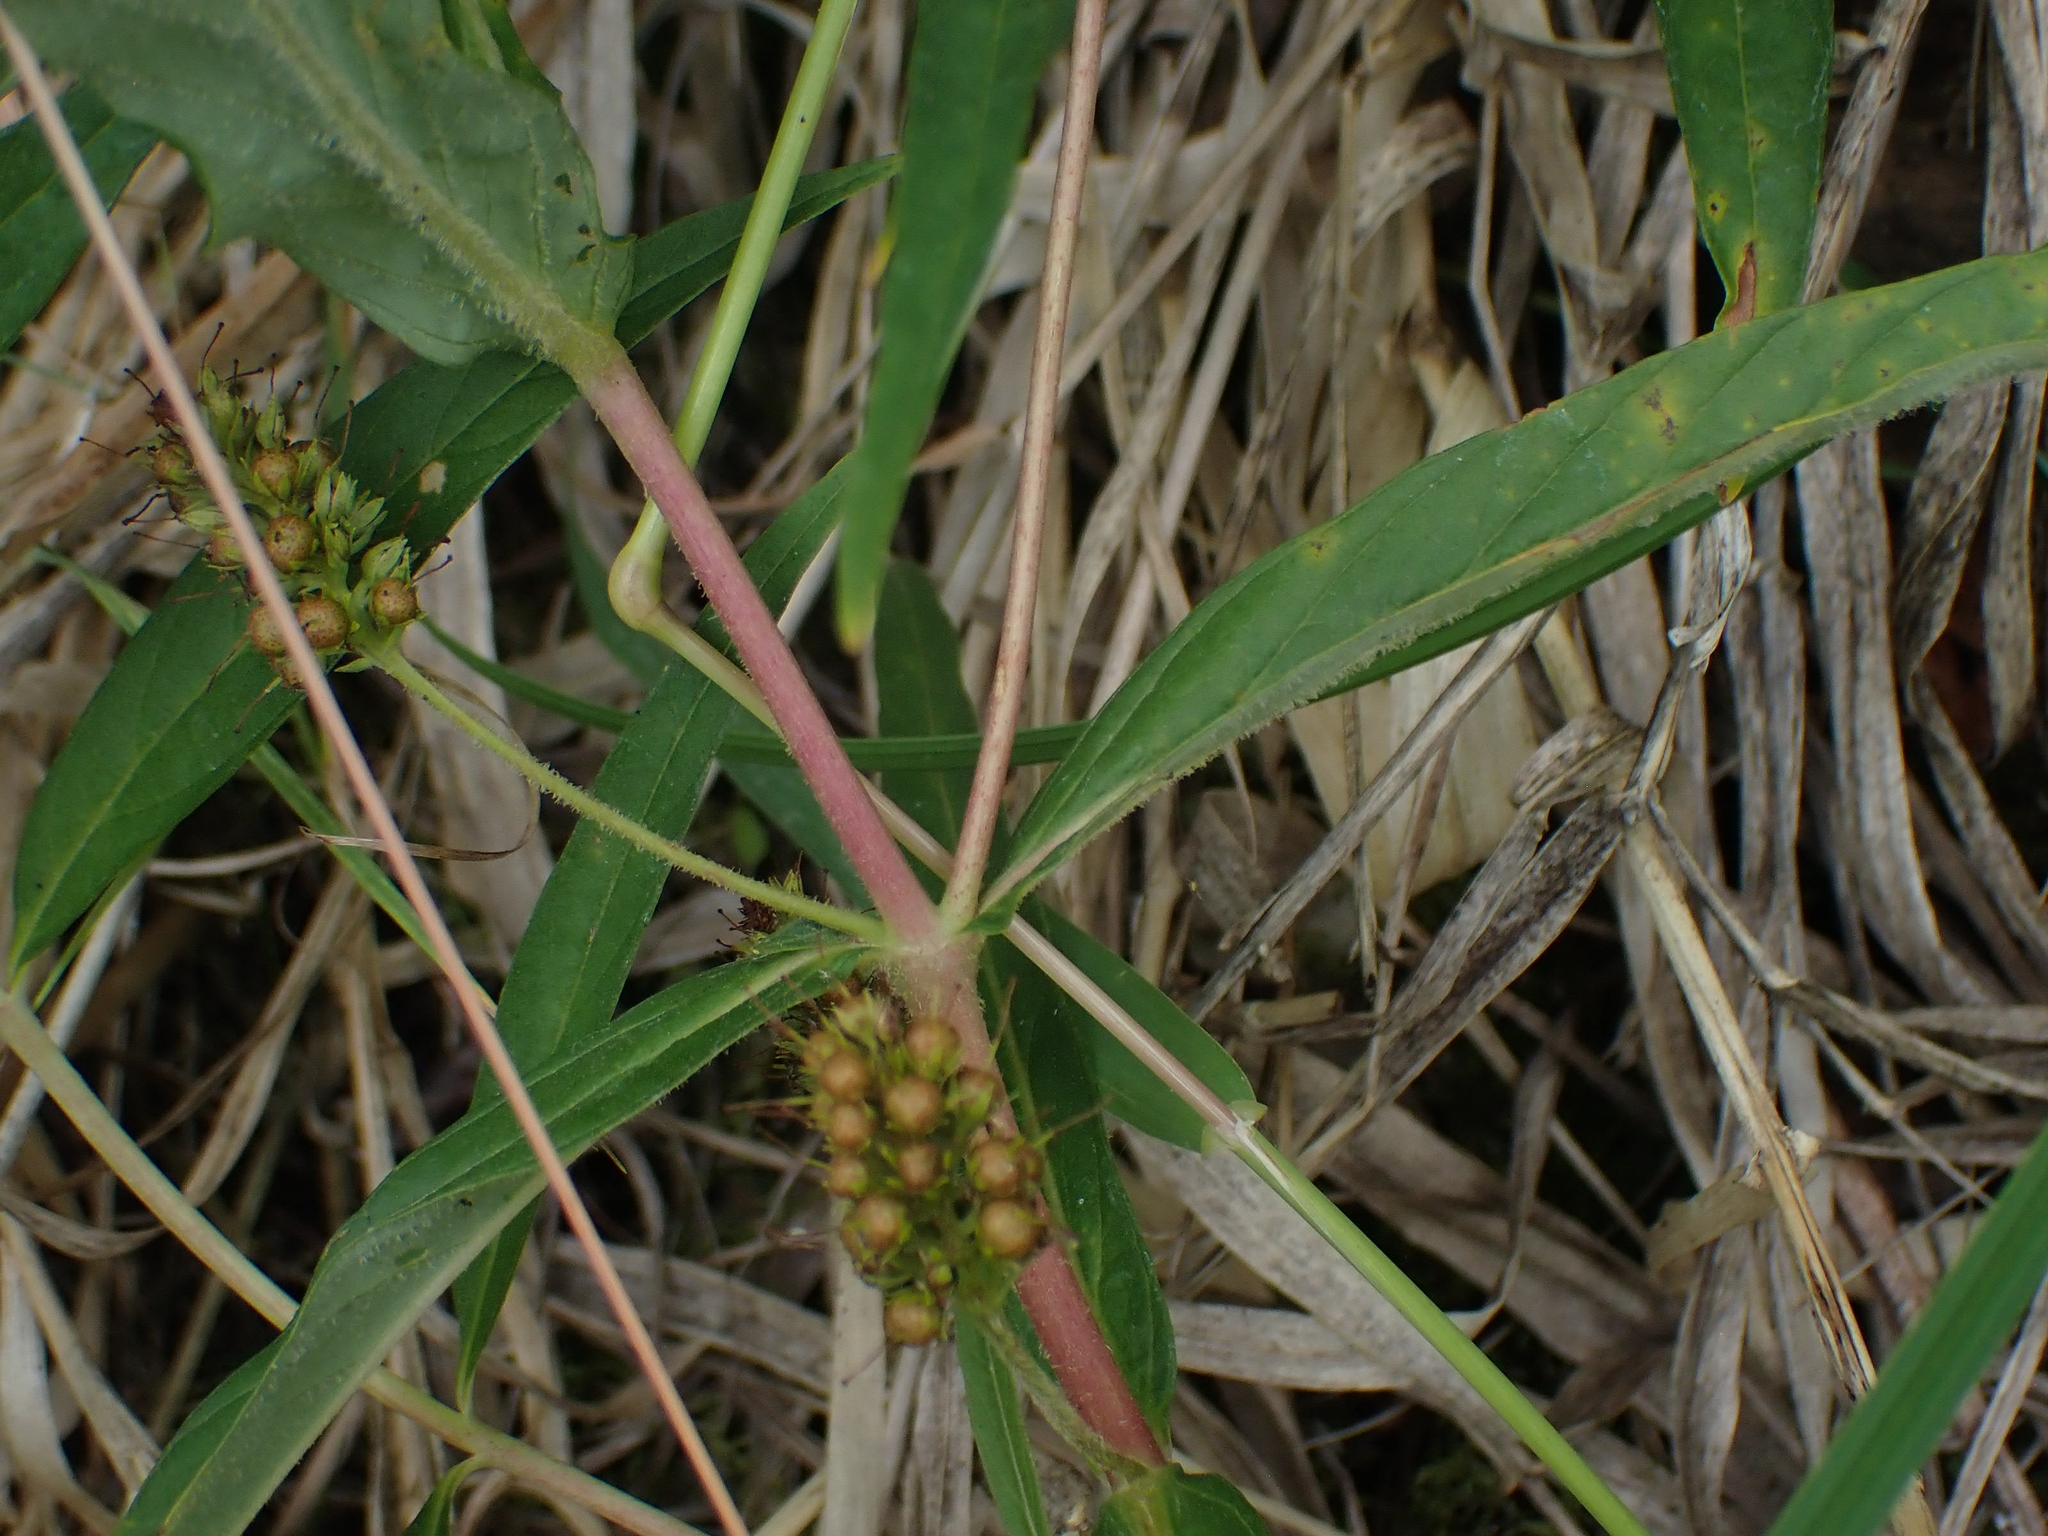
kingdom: Plantae
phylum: Tracheophyta
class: Magnoliopsida
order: Ericales
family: Primulaceae
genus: Lysimachia
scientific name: Lysimachia thyrsiflora
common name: Tufted loosestrife
